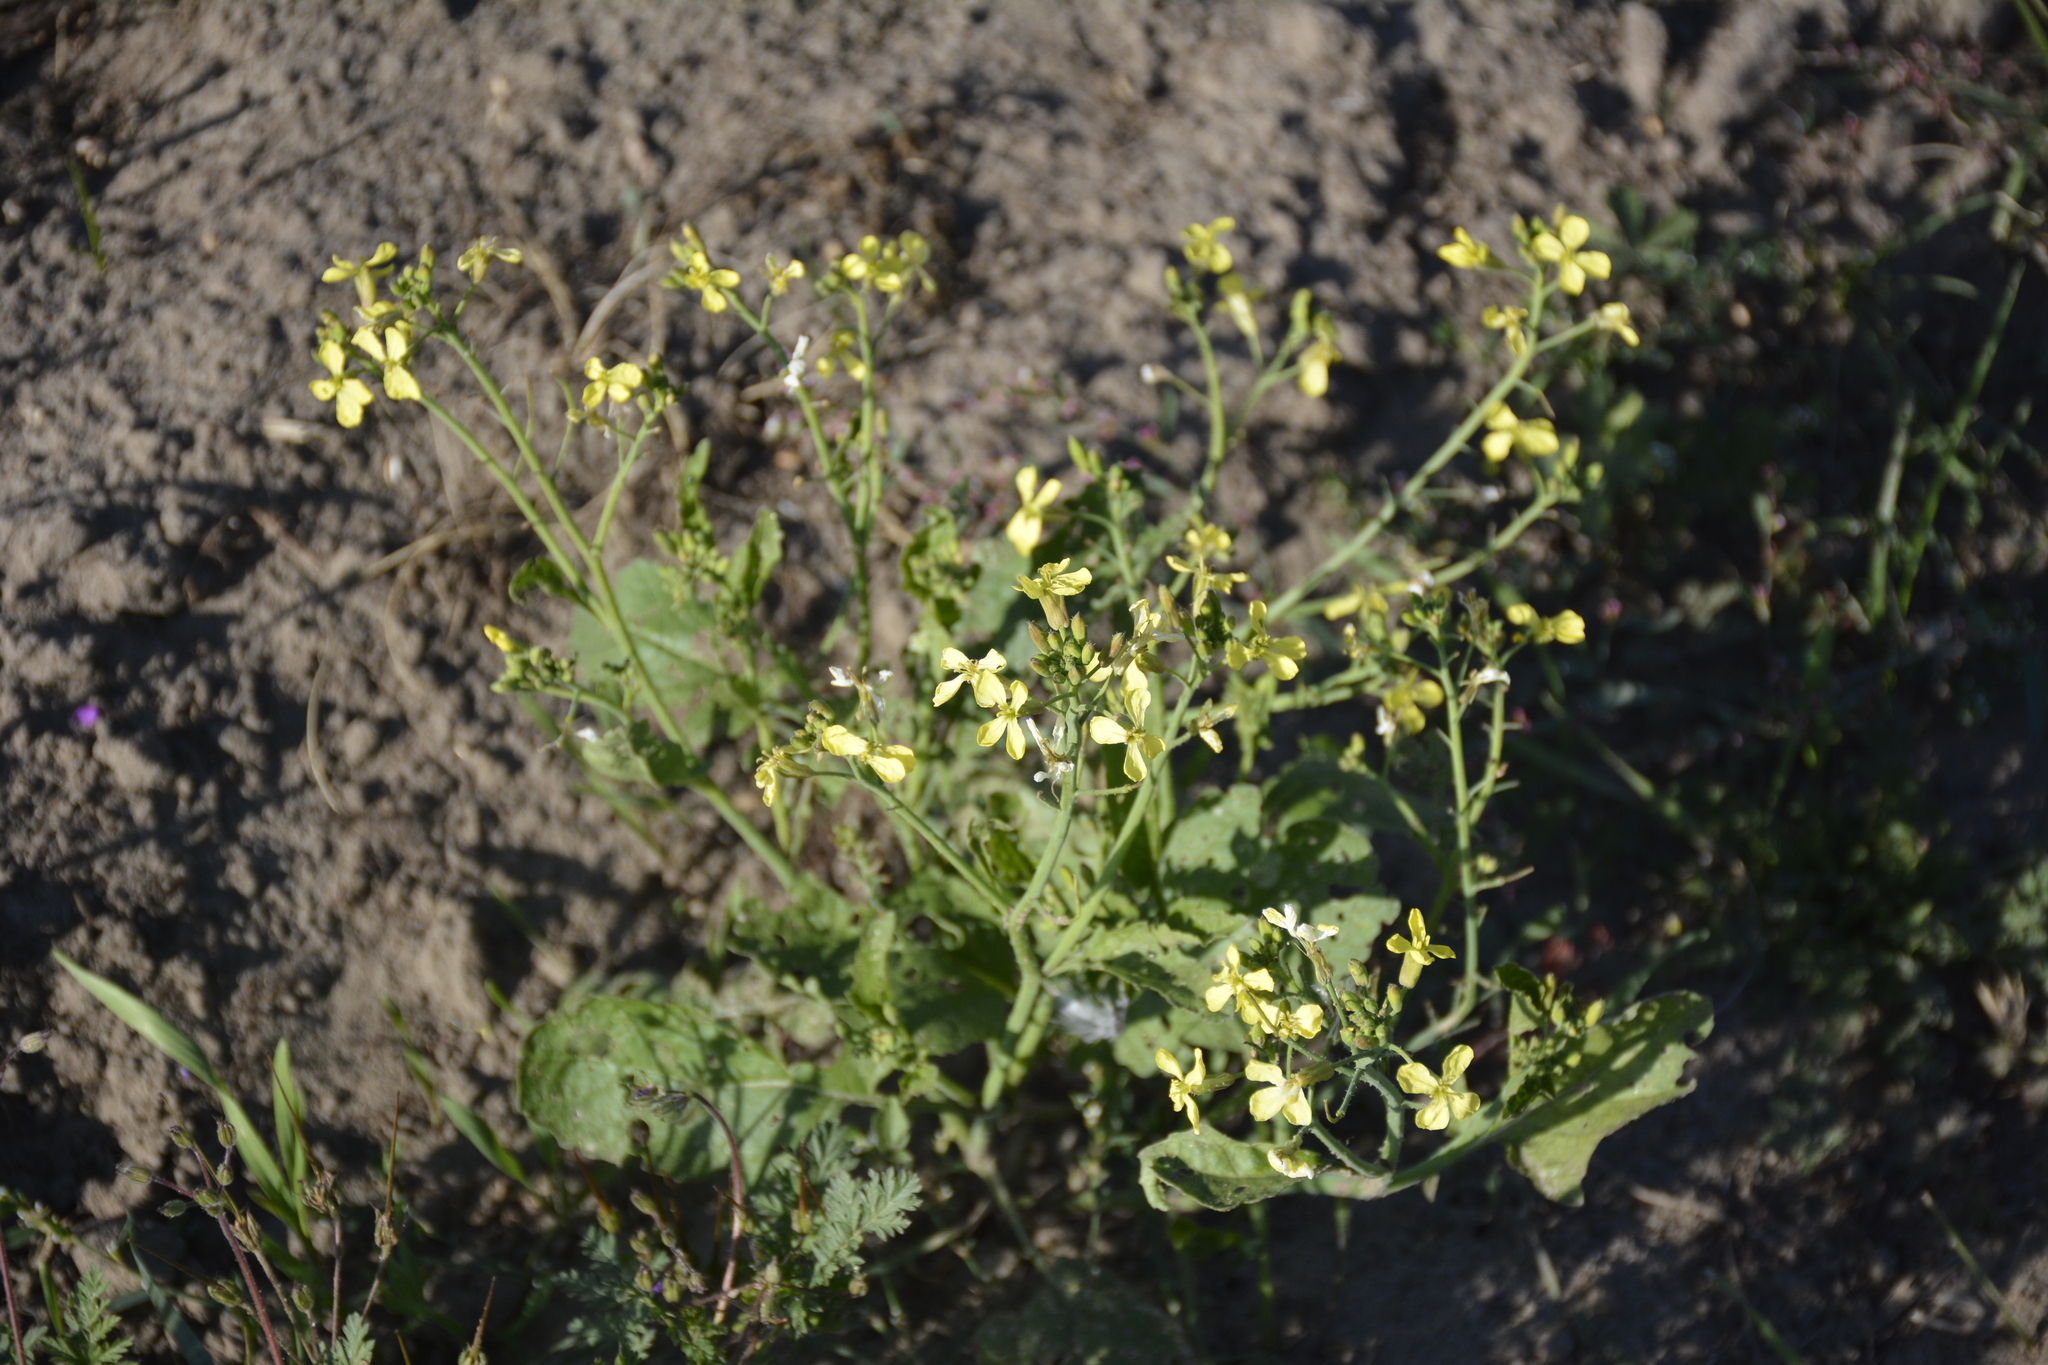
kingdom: Plantae
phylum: Tracheophyta
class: Magnoliopsida
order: Brassicales
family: Brassicaceae
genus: Raphanus
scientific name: Raphanus raphanistrum
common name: Wild radish
